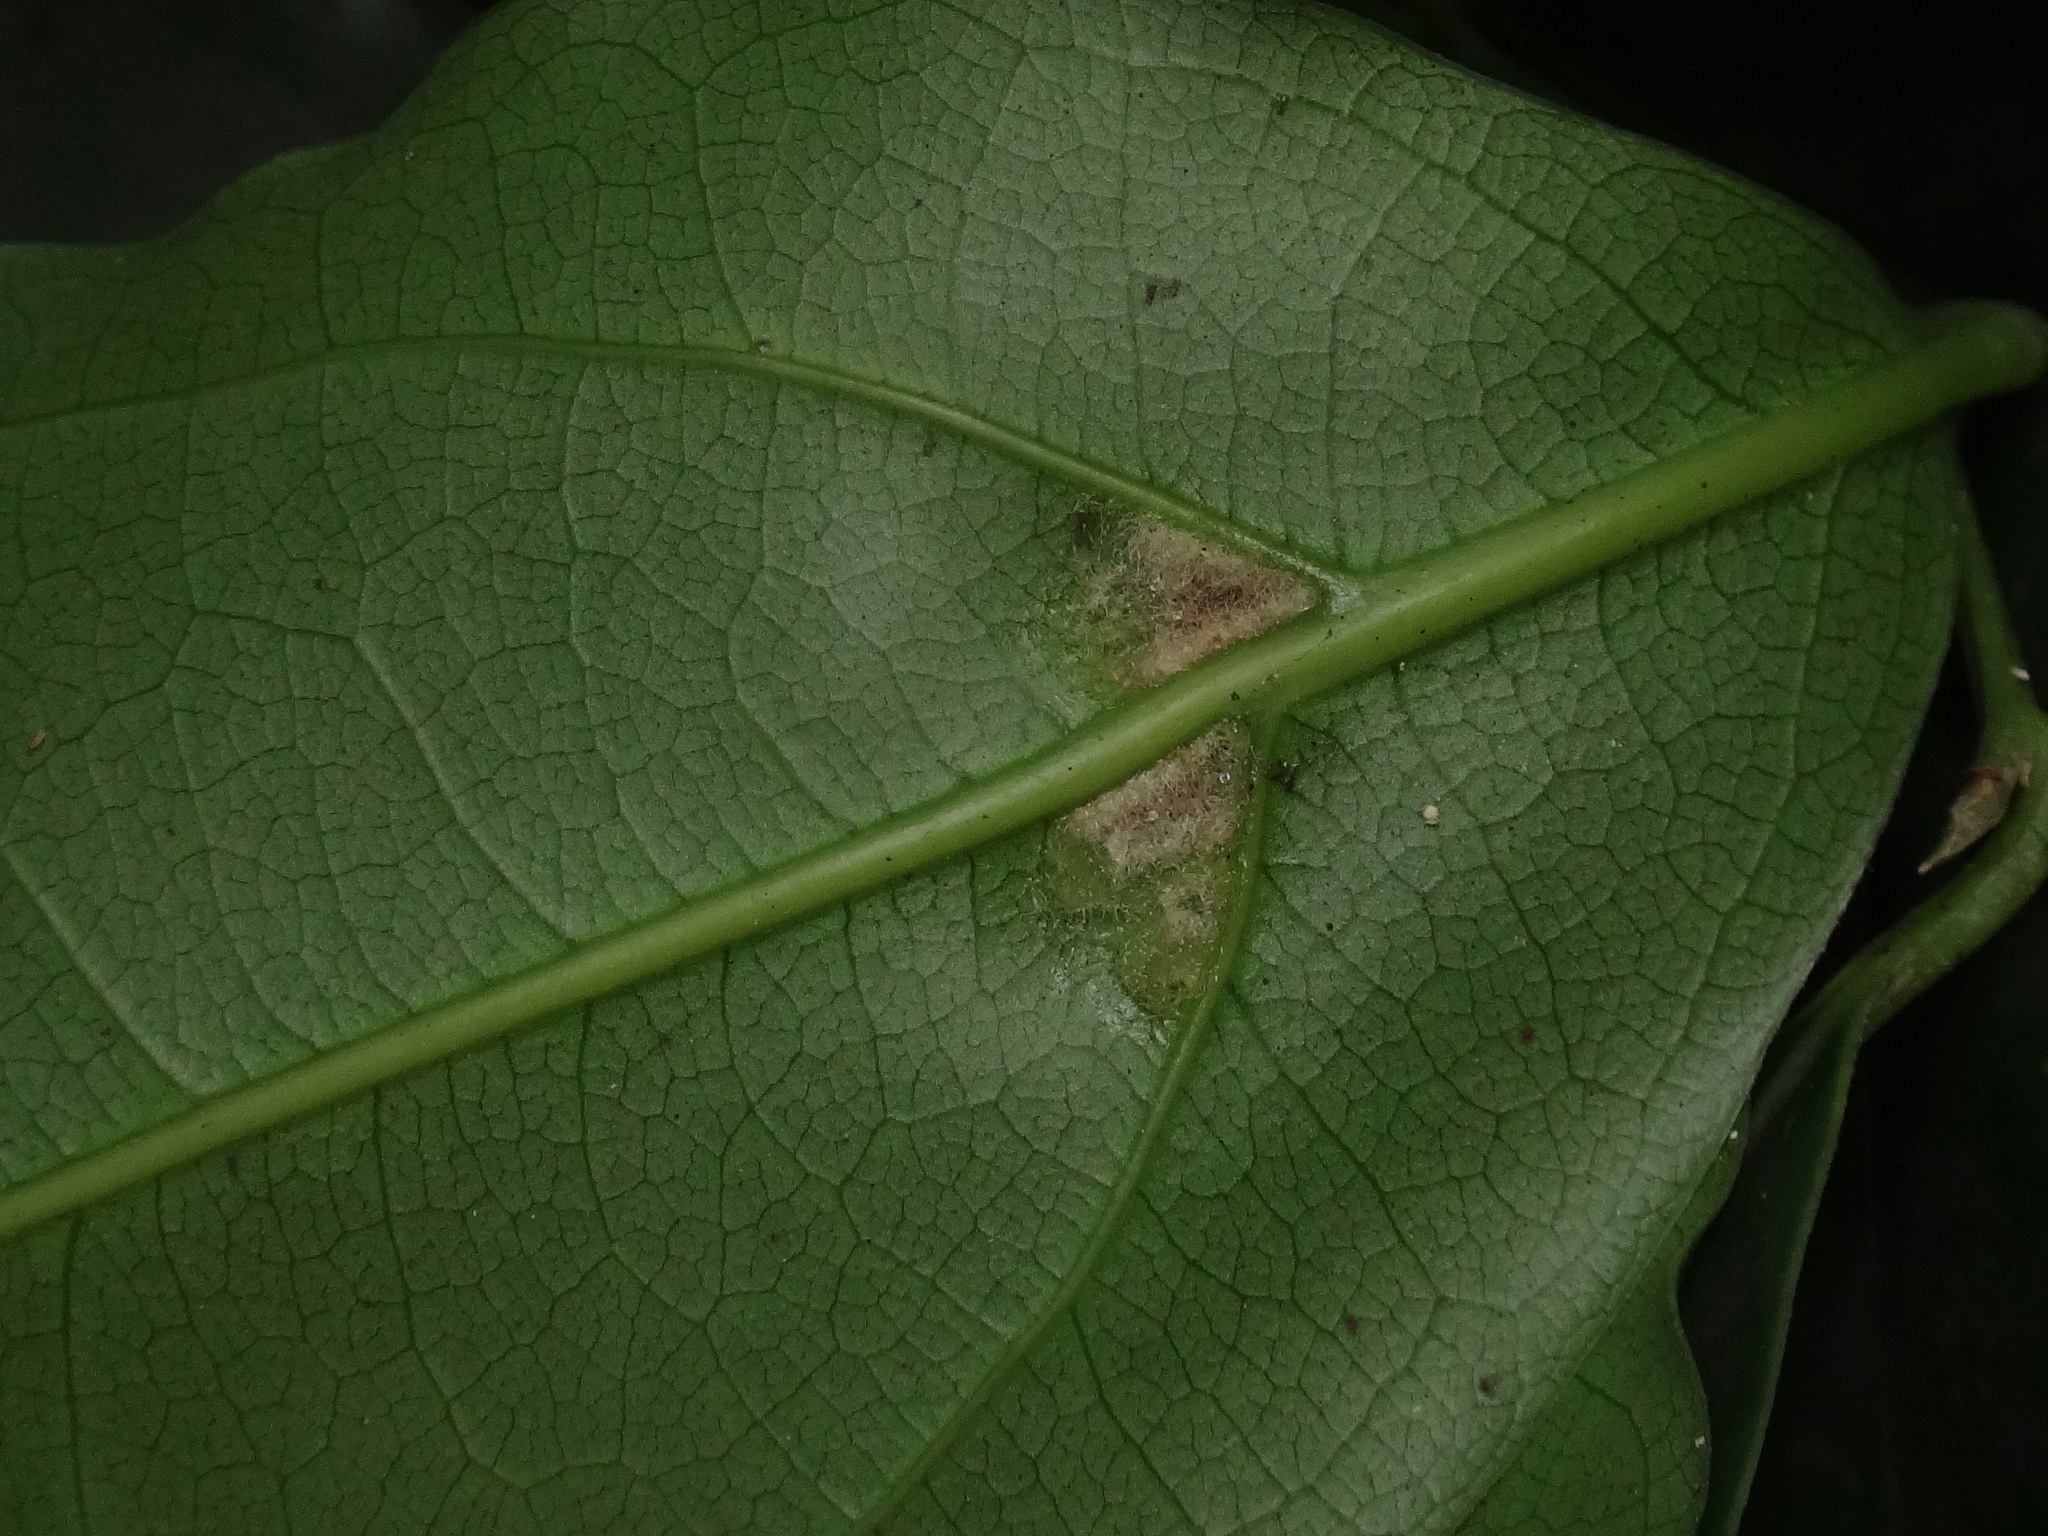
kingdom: Plantae
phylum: Tracheophyta
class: Magnoliopsida
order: Laurales
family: Lauraceae
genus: Mespilodaphne
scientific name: Mespilodaphne foetens
